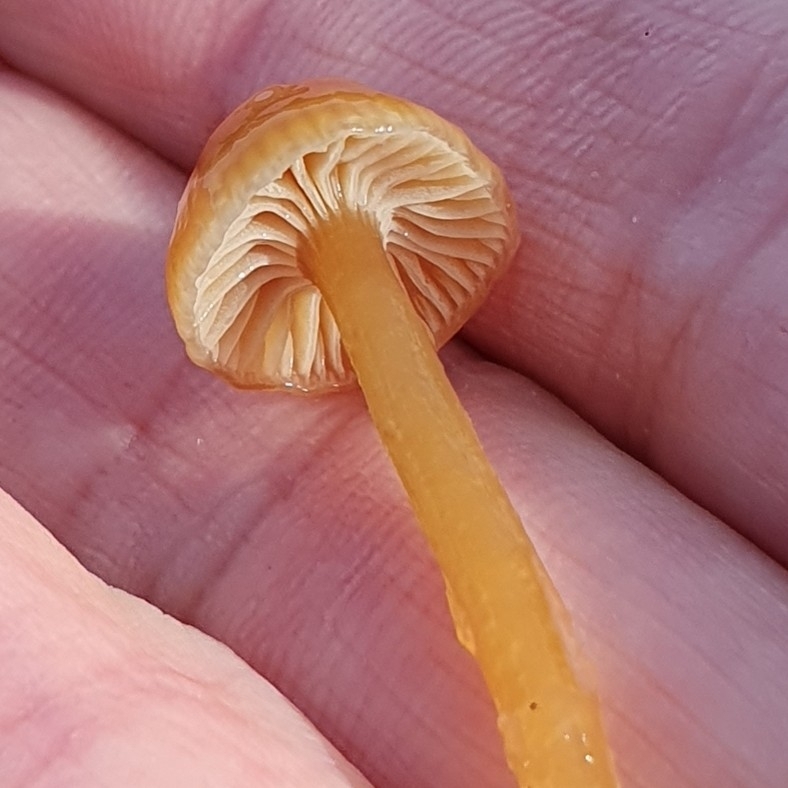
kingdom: Fungi
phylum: Basidiomycota
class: Agaricomycetes
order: Agaricales
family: Hygrophoraceae
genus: Gliophorus
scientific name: Gliophorus laetus
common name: Heath waxcap
